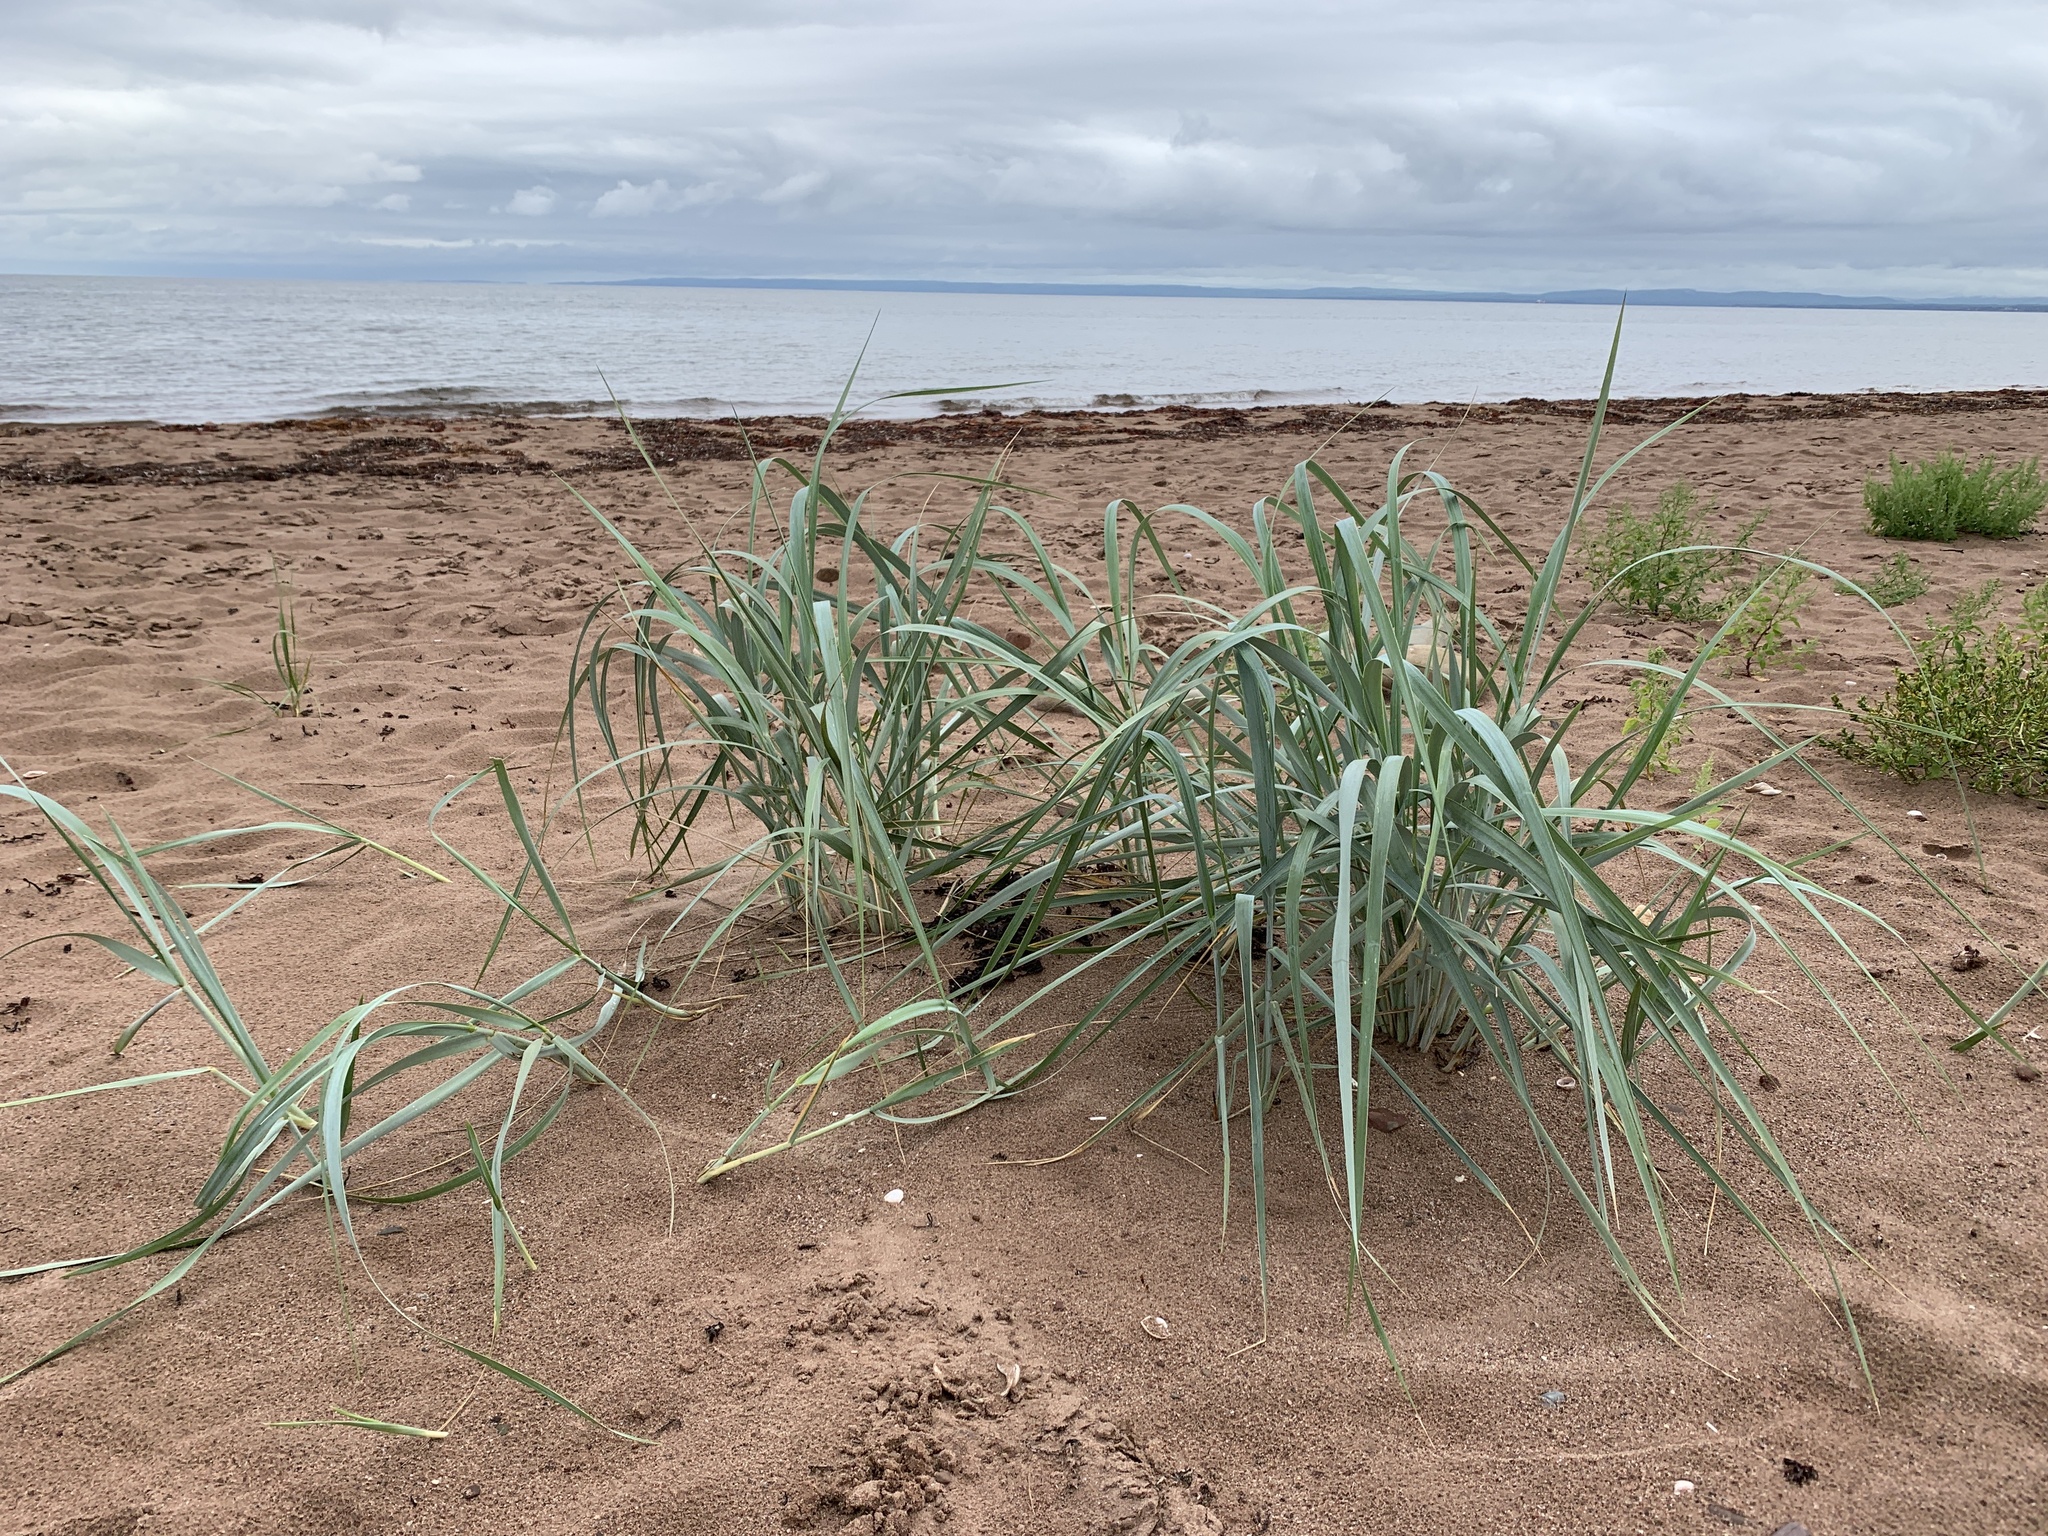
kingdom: Plantae
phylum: Tracheophyta
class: Liliopsida
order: Poales
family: Poaceae
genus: Leymus
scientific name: Leymus mollis
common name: American dune grass
